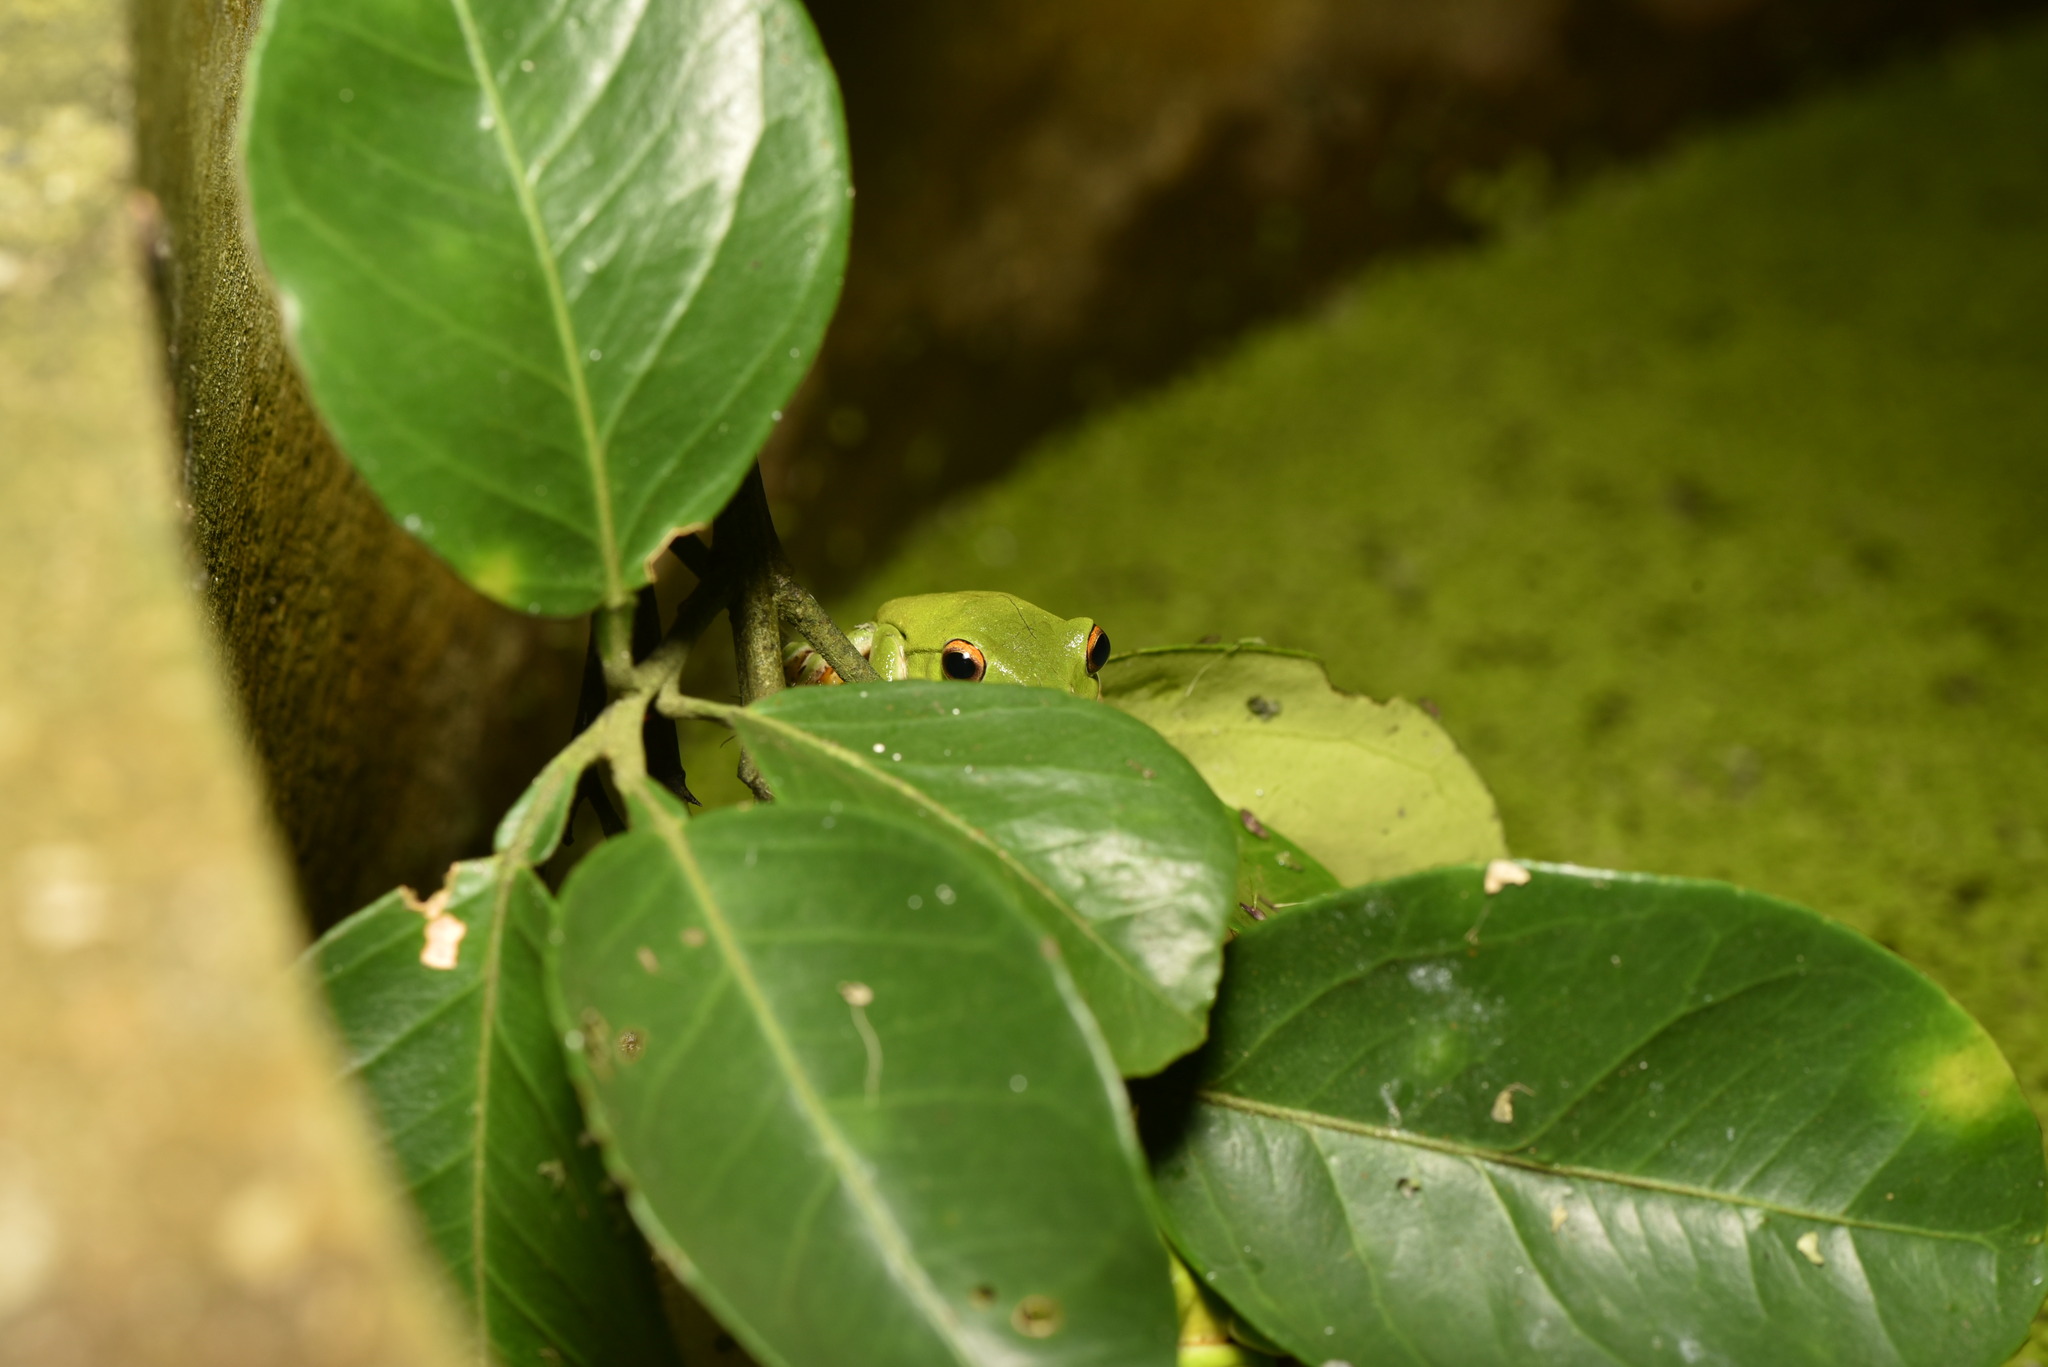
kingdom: Animalia
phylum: Chordata
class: Amphibia
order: Anura
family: Rhacophoridae
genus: Zhangixalus
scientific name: Zhangixalus moltrechti
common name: Moltrecht's treefrog
